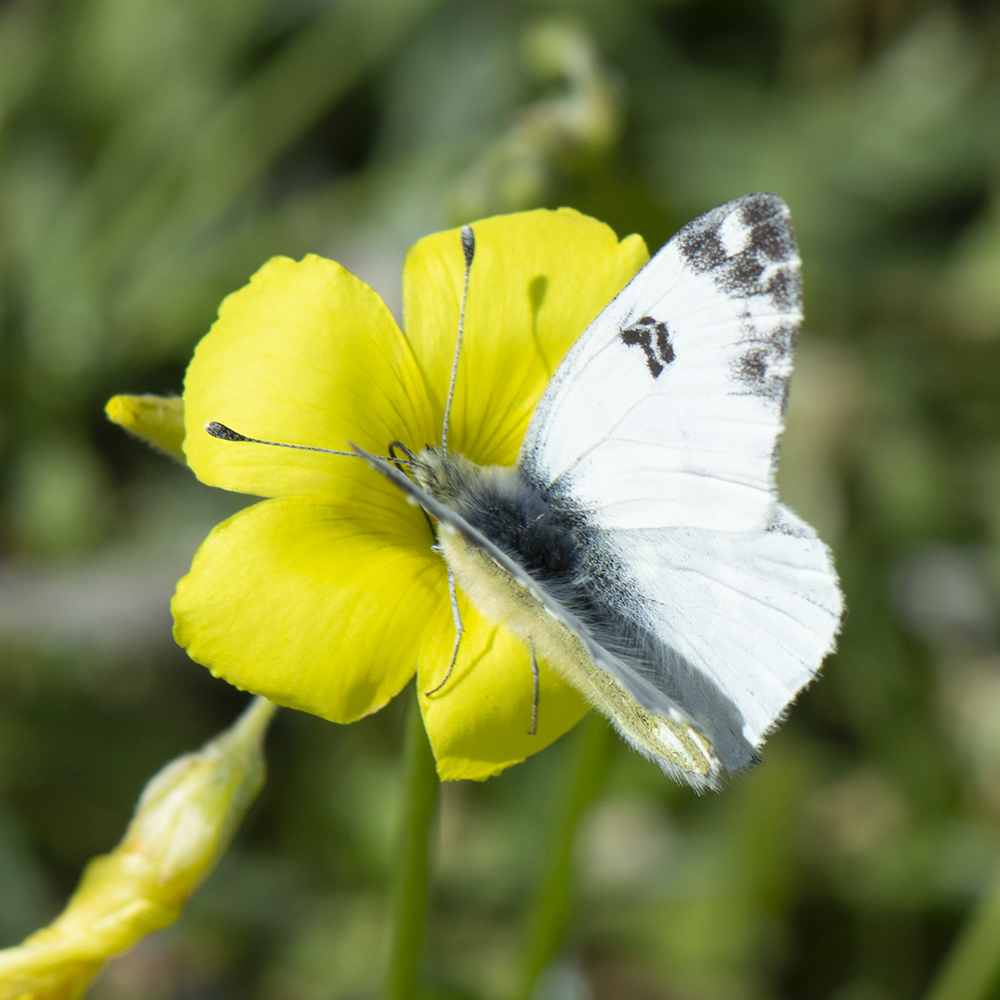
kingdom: Animalia
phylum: Arthropoda
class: Insecta
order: Lepidoptera
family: Pieridae
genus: Pontia
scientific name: Pontia edusa
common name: Eastern bath white
